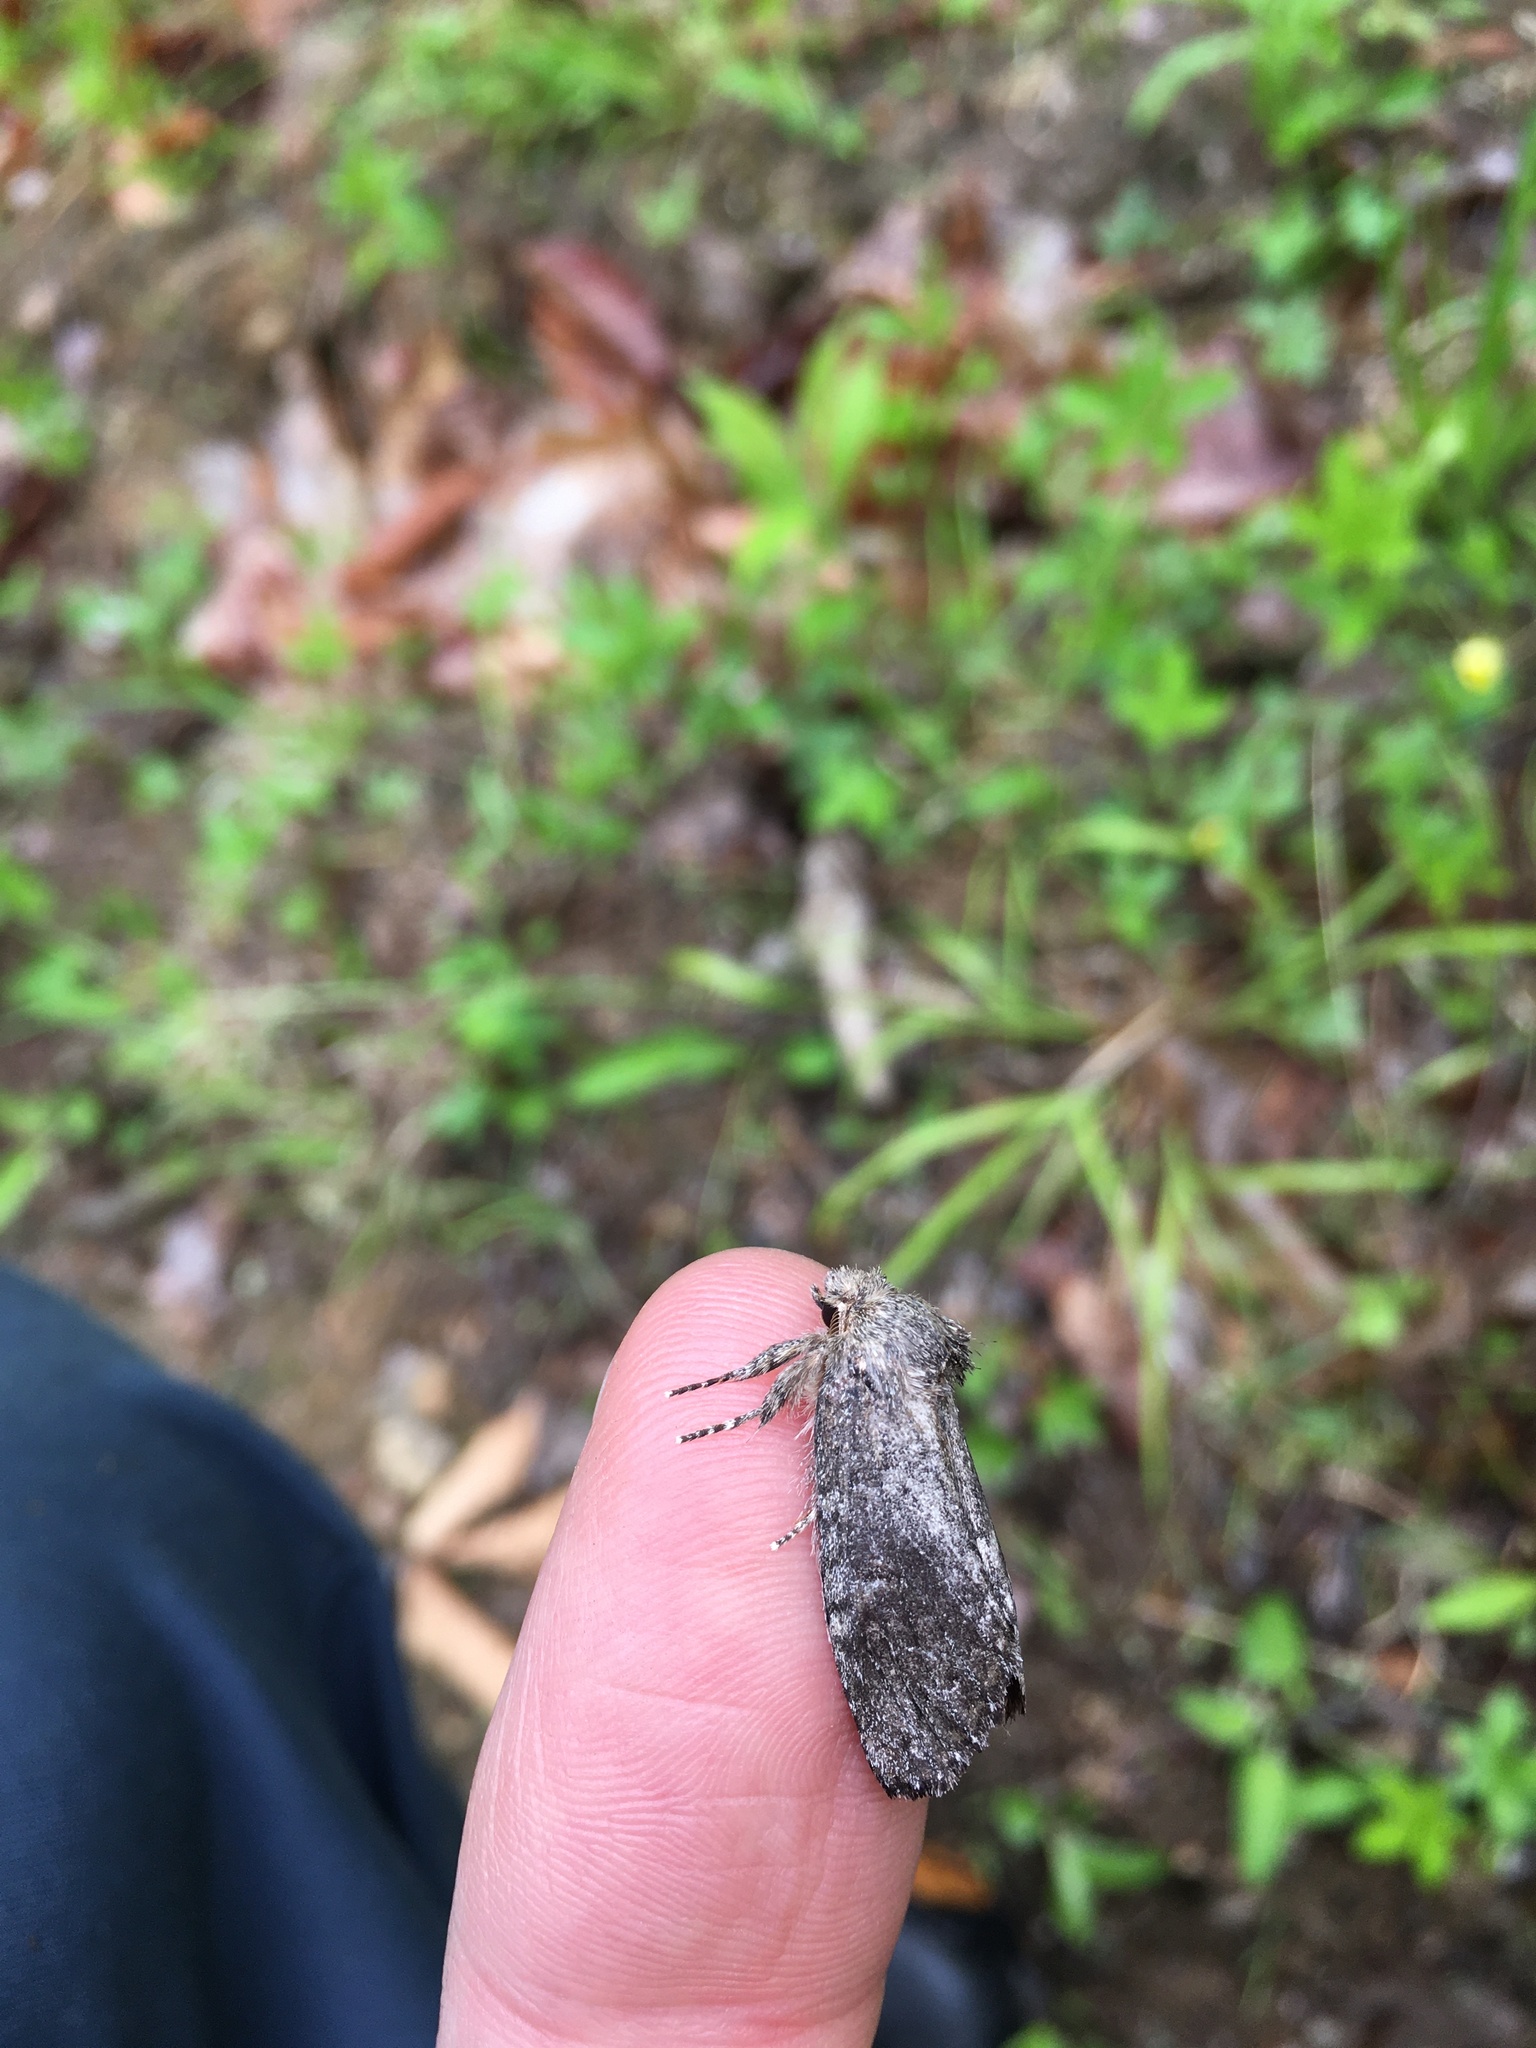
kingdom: Animalia
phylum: Arthropoda
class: Insecta
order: Lepidoptera
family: Notodontidae
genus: Disphragis
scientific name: Disphragis Cecrita guttivitta
